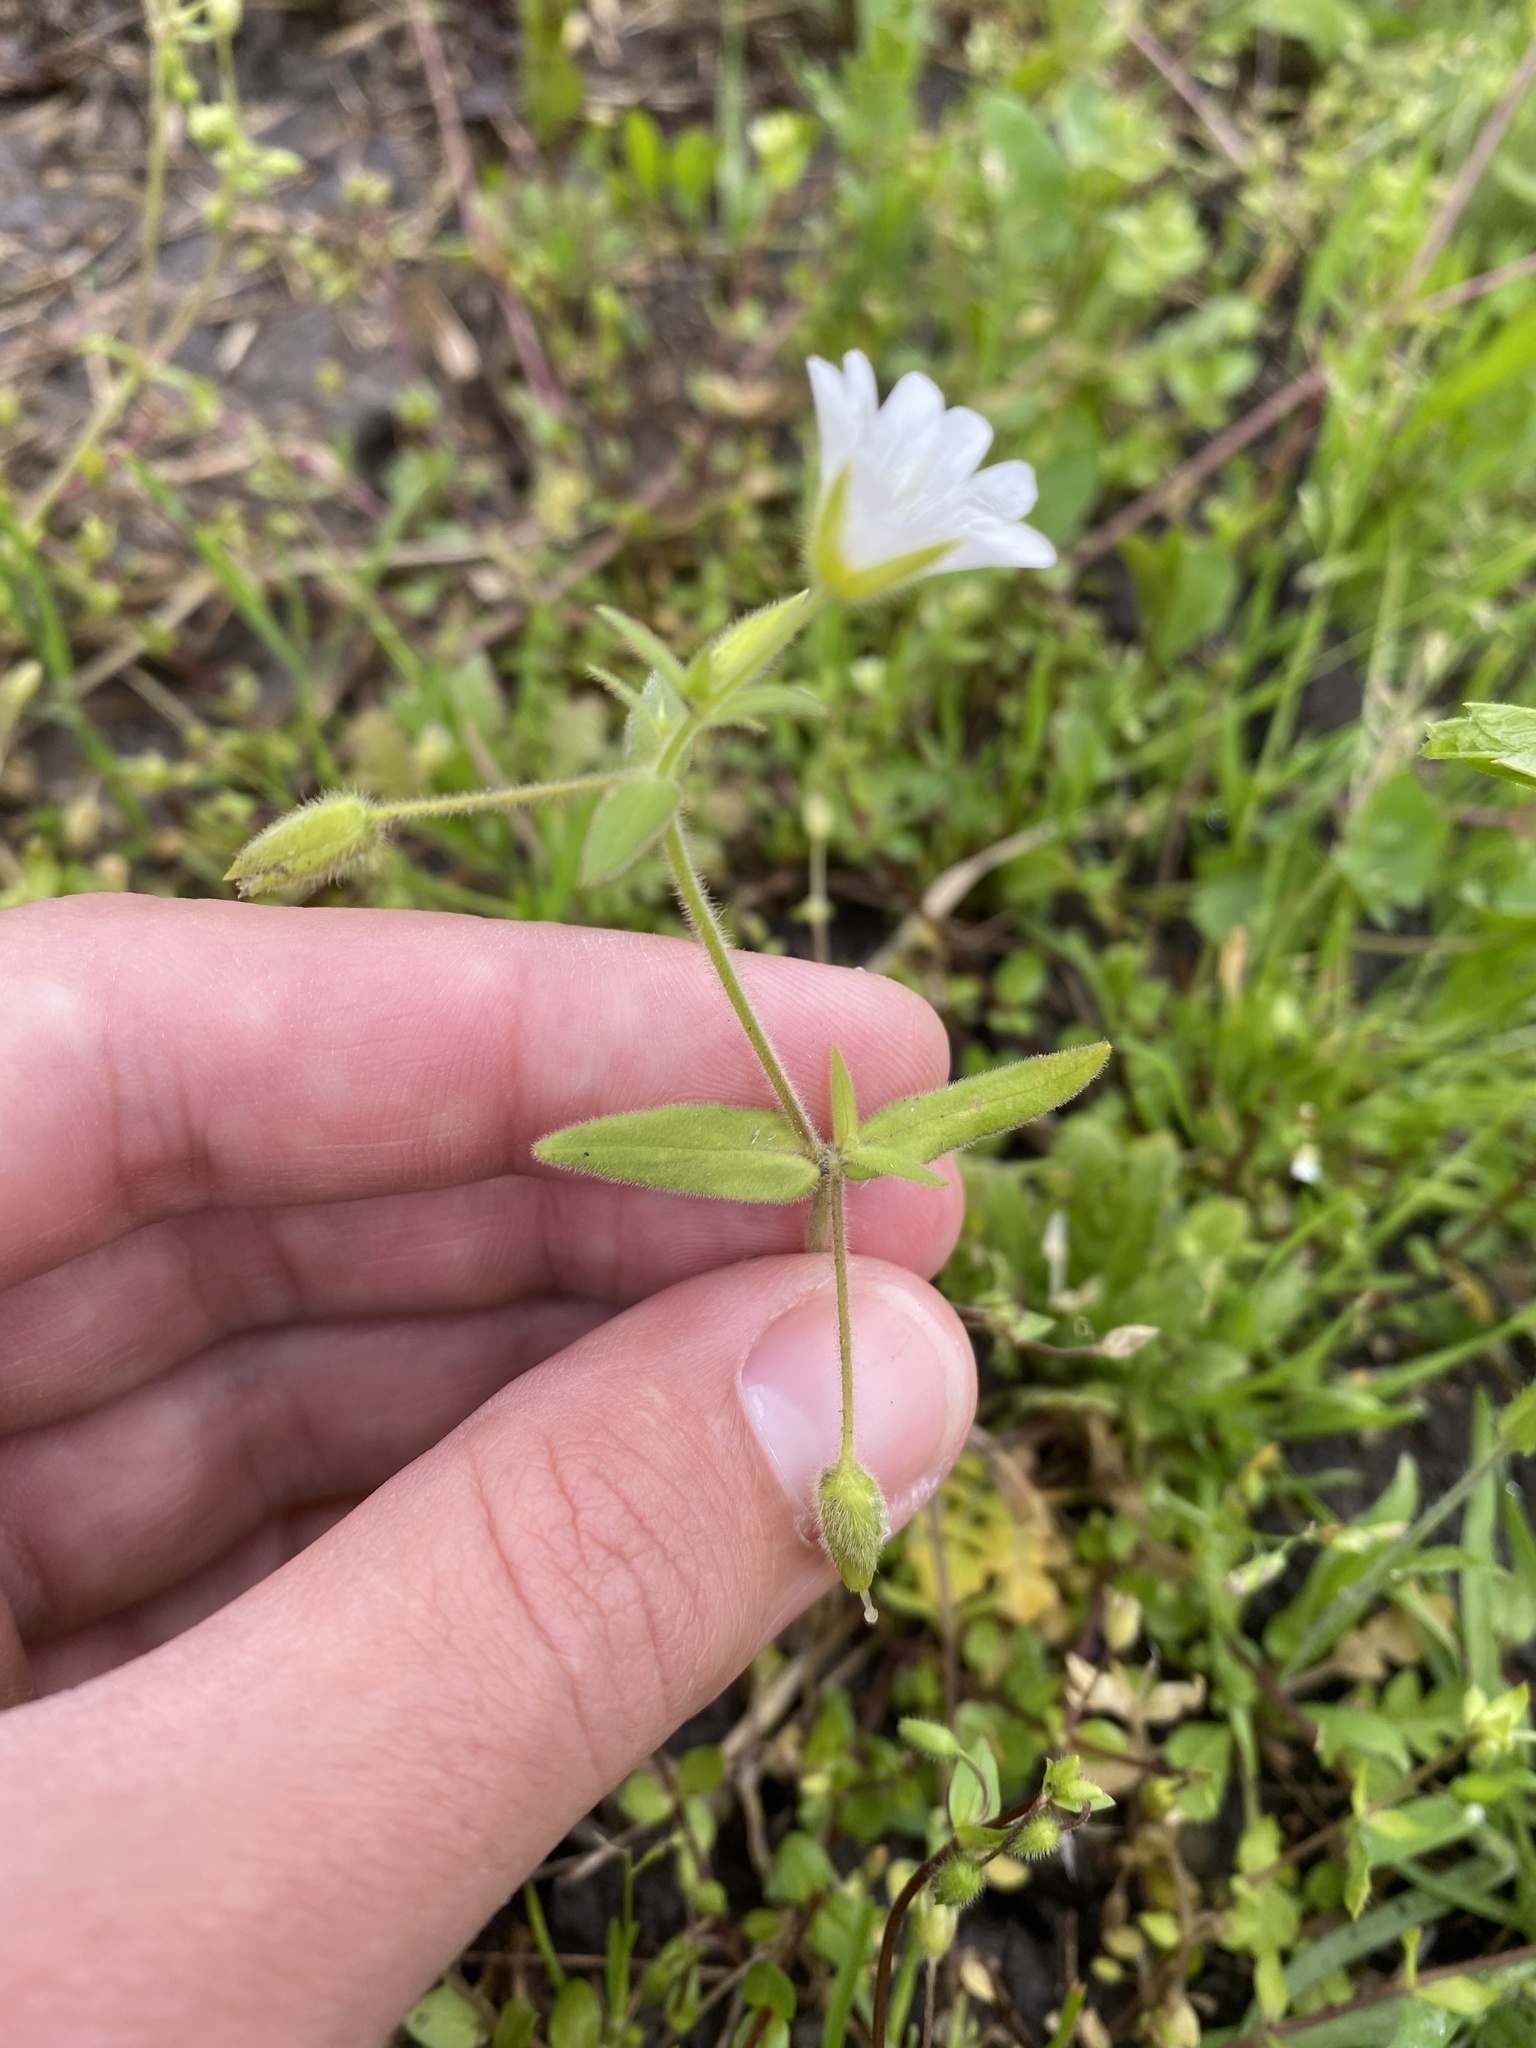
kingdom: Plantae
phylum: Tracheophyta
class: Magnoliopsida
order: Caryophyllales
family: Caryophyllaceae
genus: Cerastium
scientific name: Cerastium nemorale
